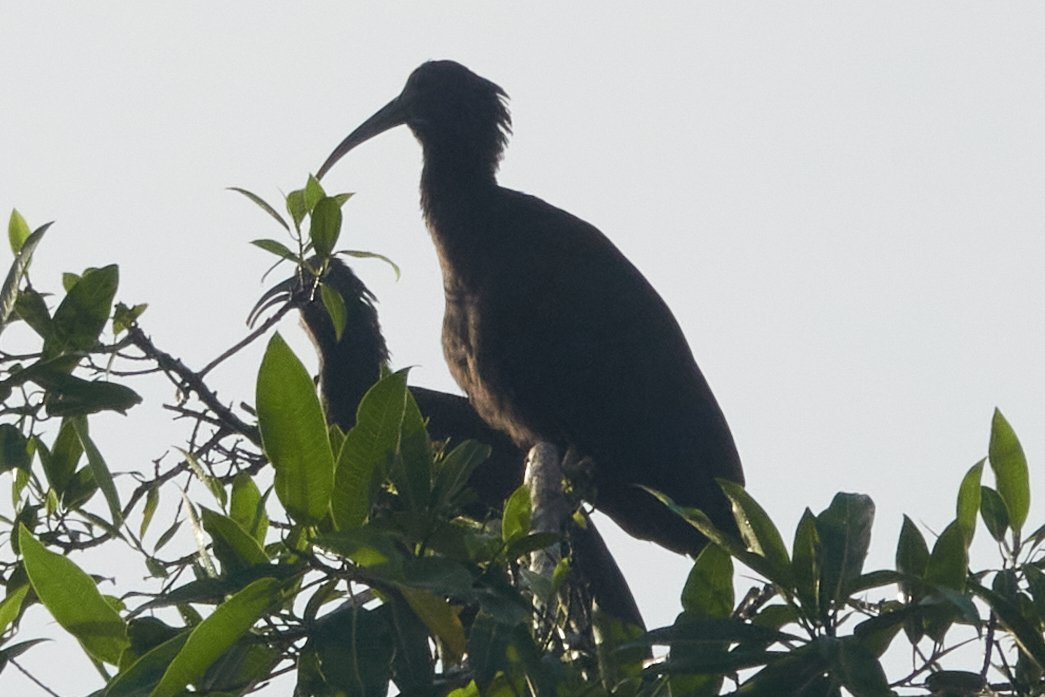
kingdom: Animalia
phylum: Chordata
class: Aves
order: Pelecaniformes
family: Threskiornithidae
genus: Mesembrinibis
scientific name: Mesembrinibis cayennensis
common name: Green ibis
